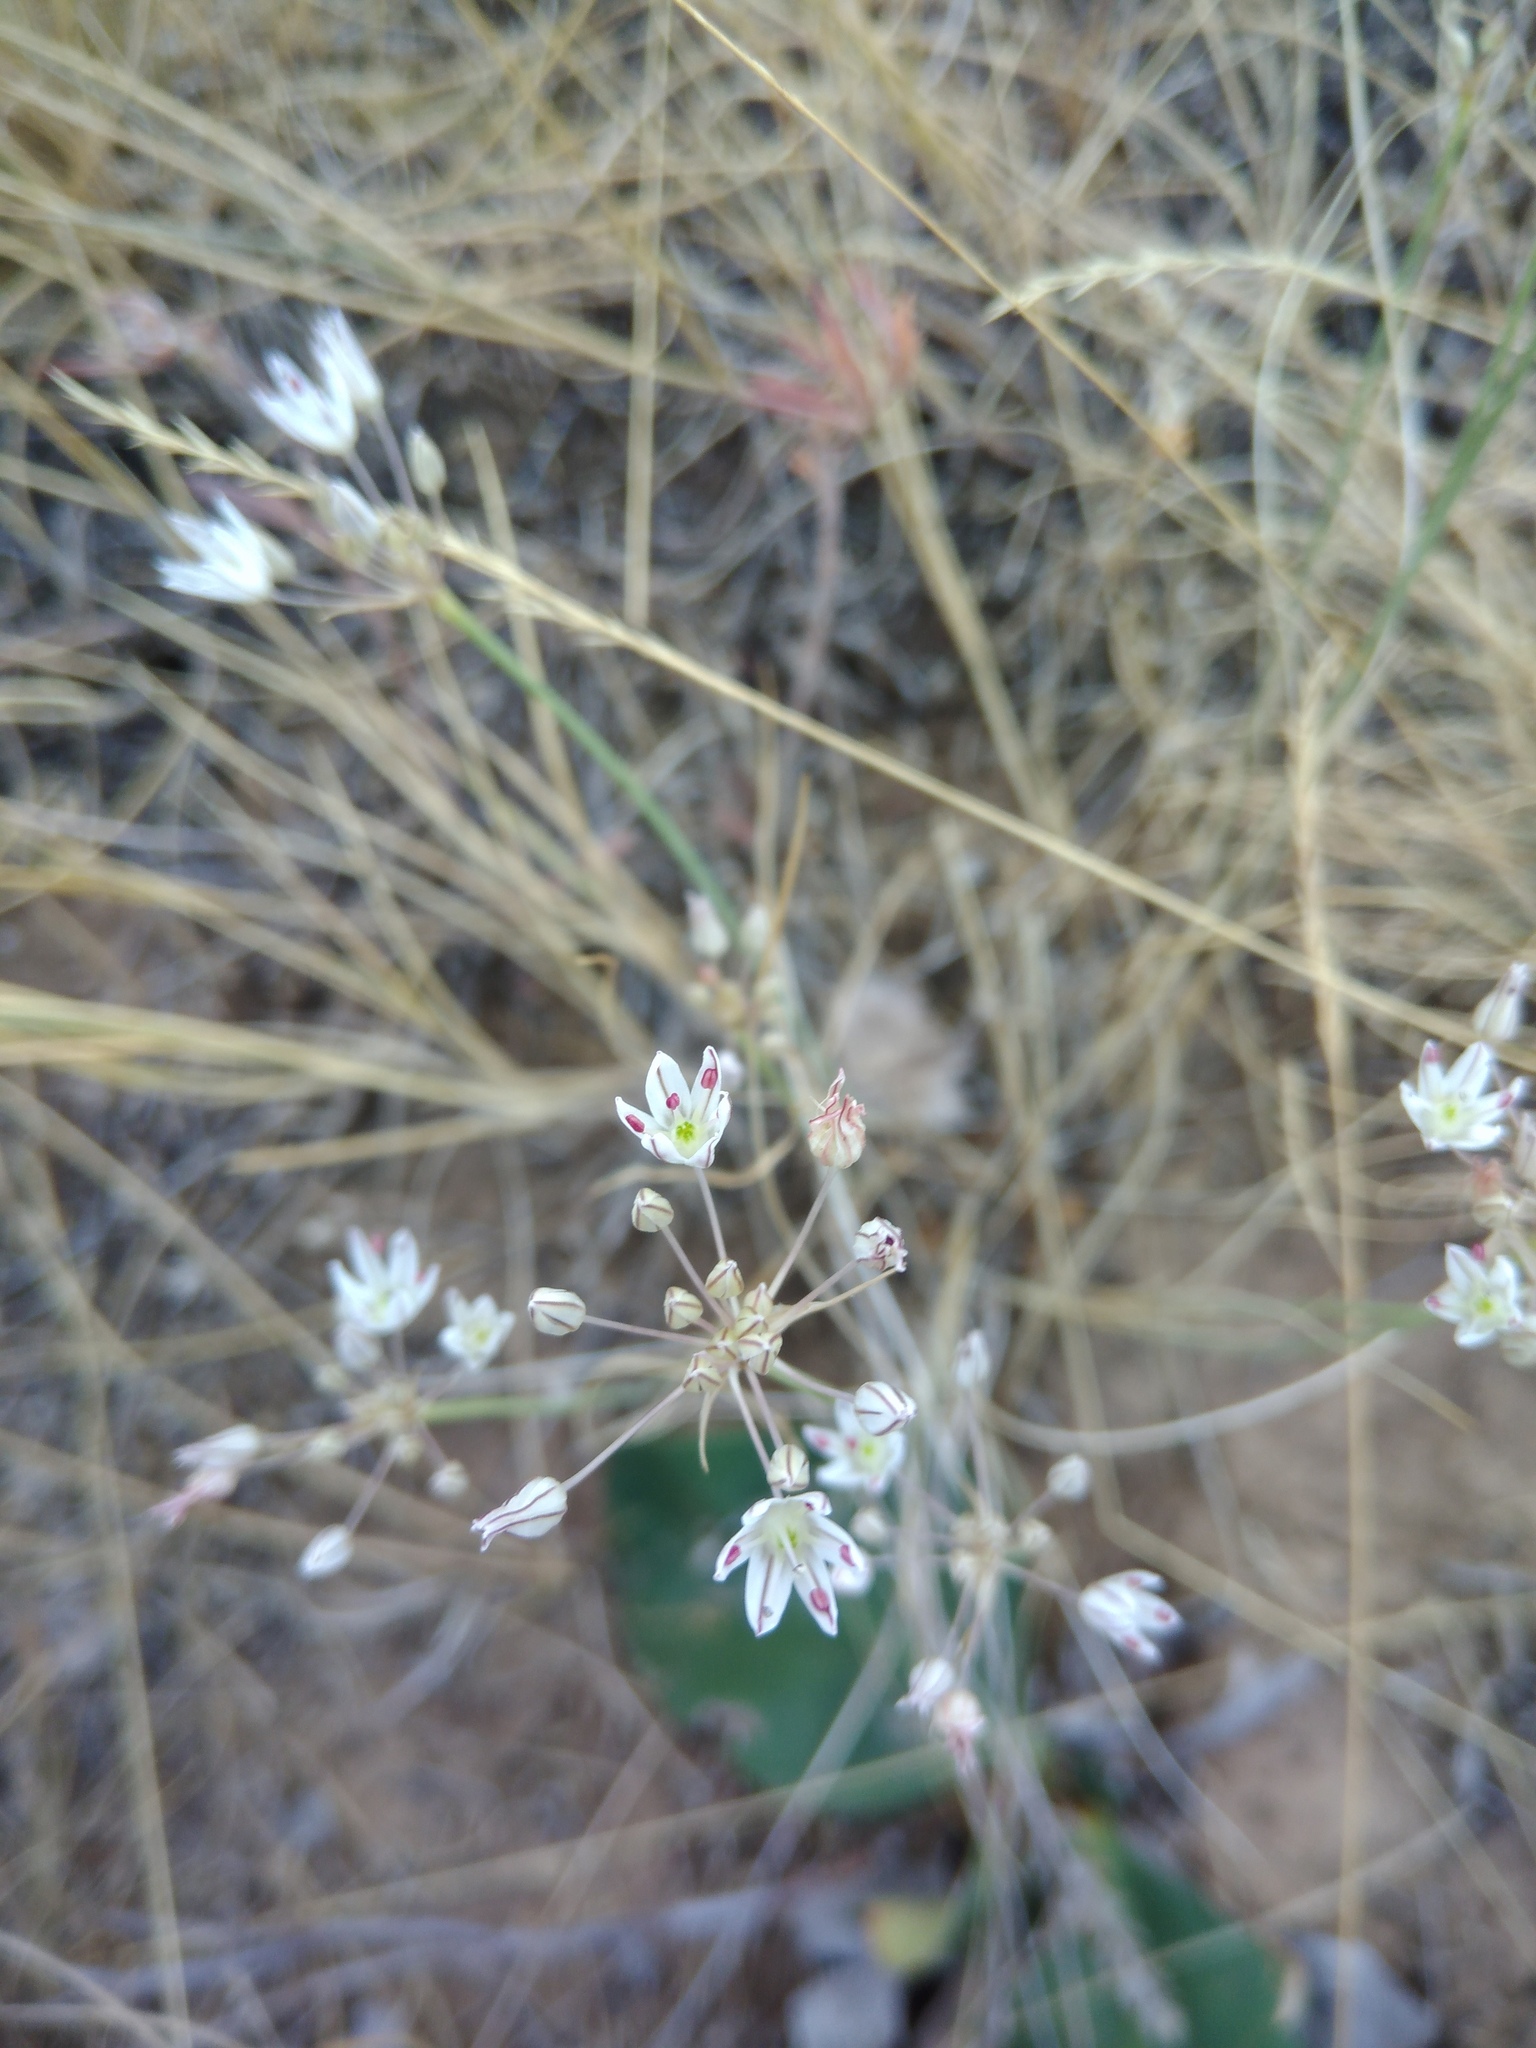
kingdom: Plantae
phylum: Tracheophyta
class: Liliopsida
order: Asparagales
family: Amaryllidaceae
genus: Allium
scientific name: Allium inaequale
